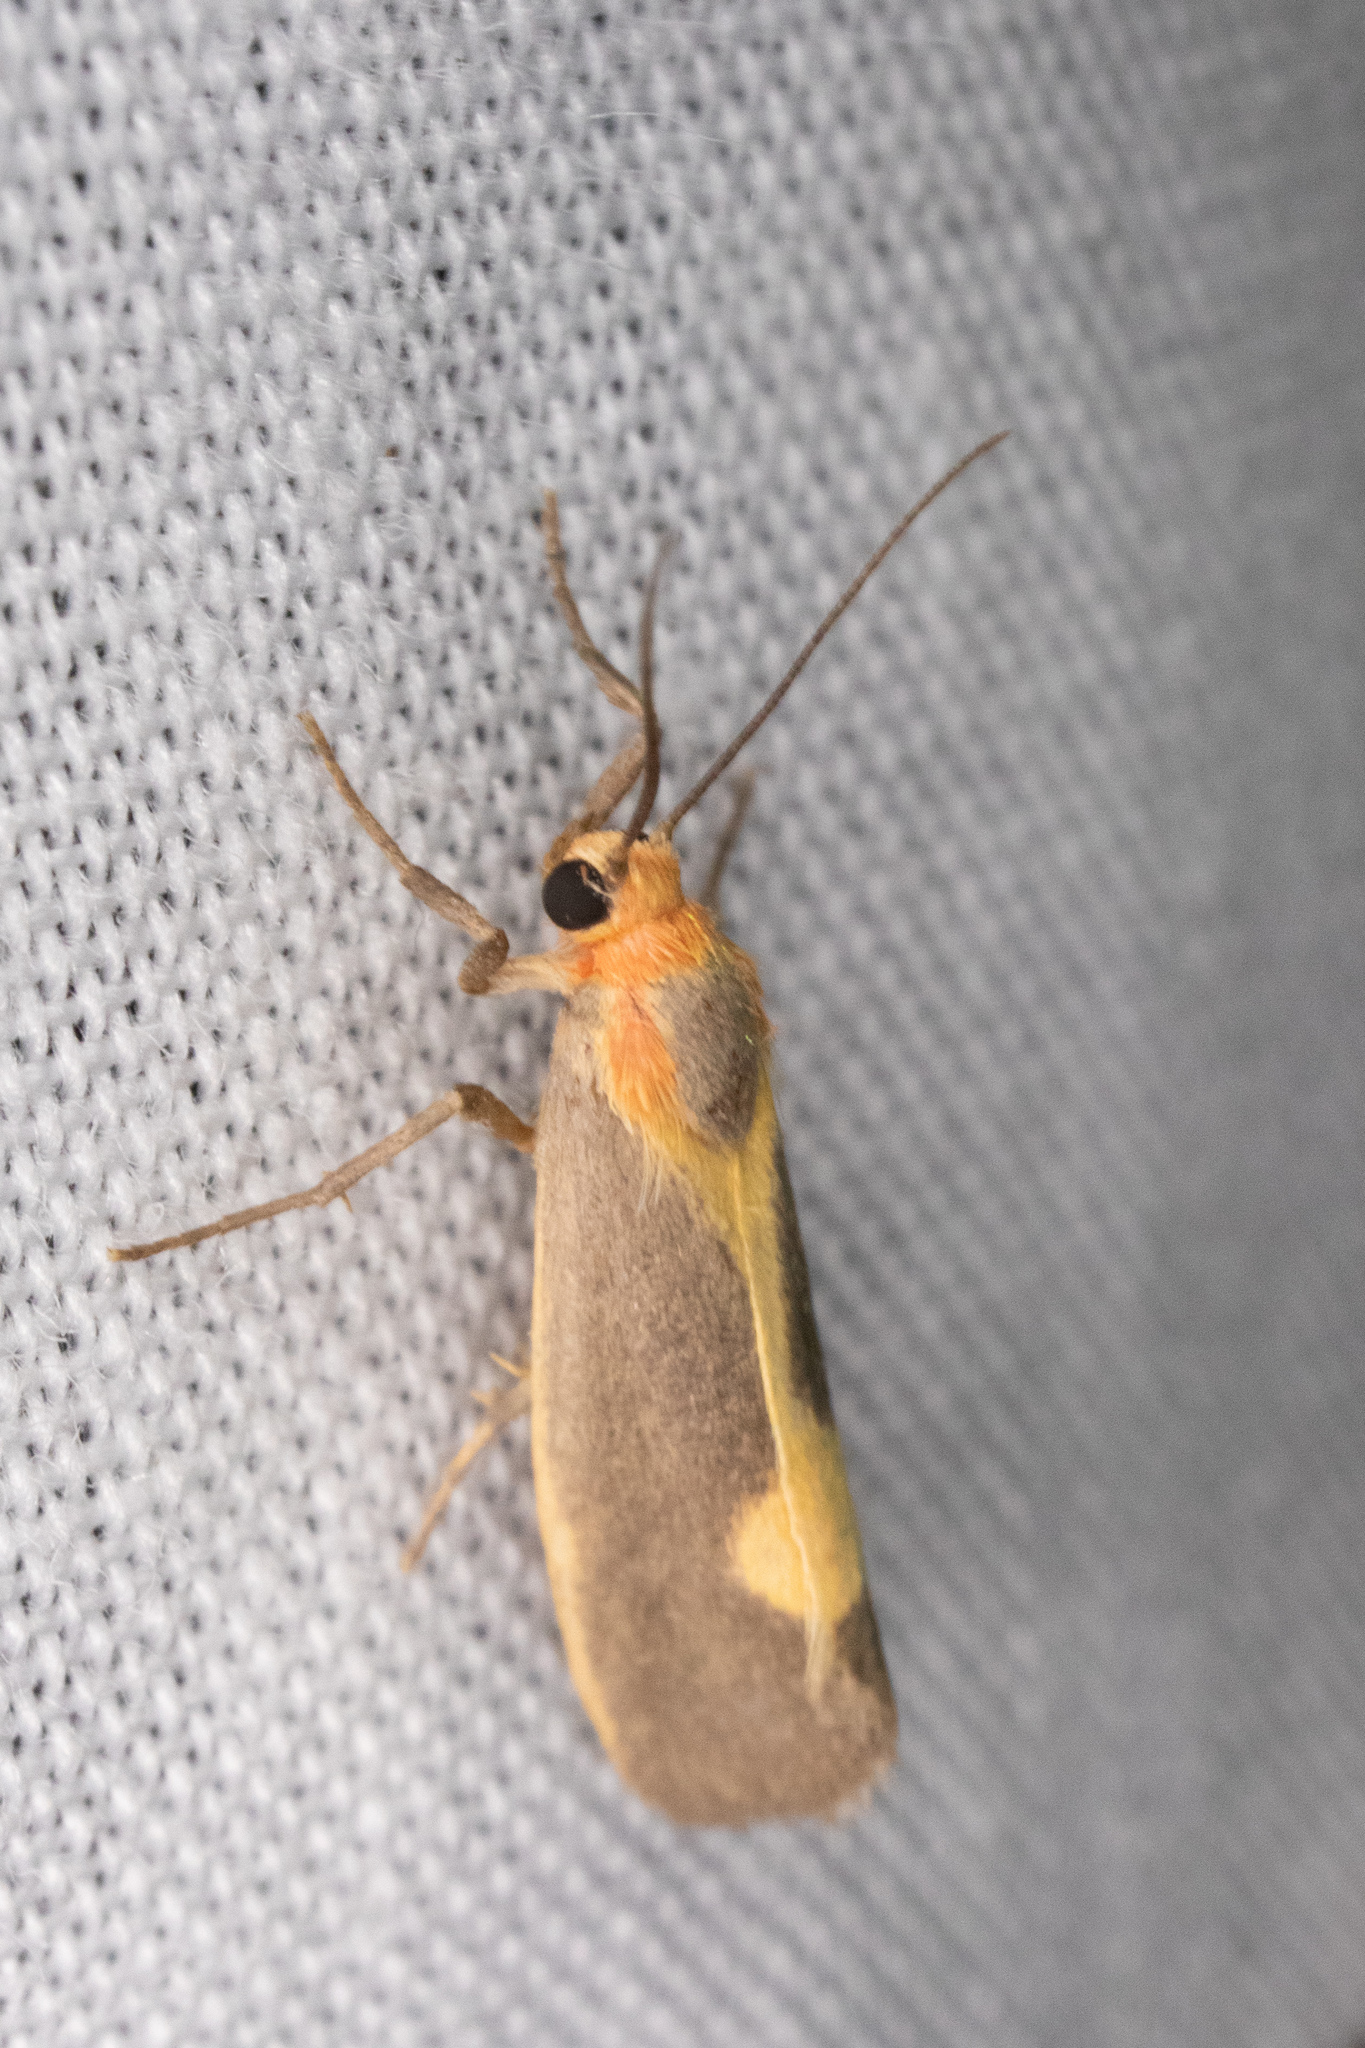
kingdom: Animalia
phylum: Arthropoda
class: Insecta
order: Lepidoptera
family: Erebidae
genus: Cisthene
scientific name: Cisthene plumbea
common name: Lead colored lichen moth
